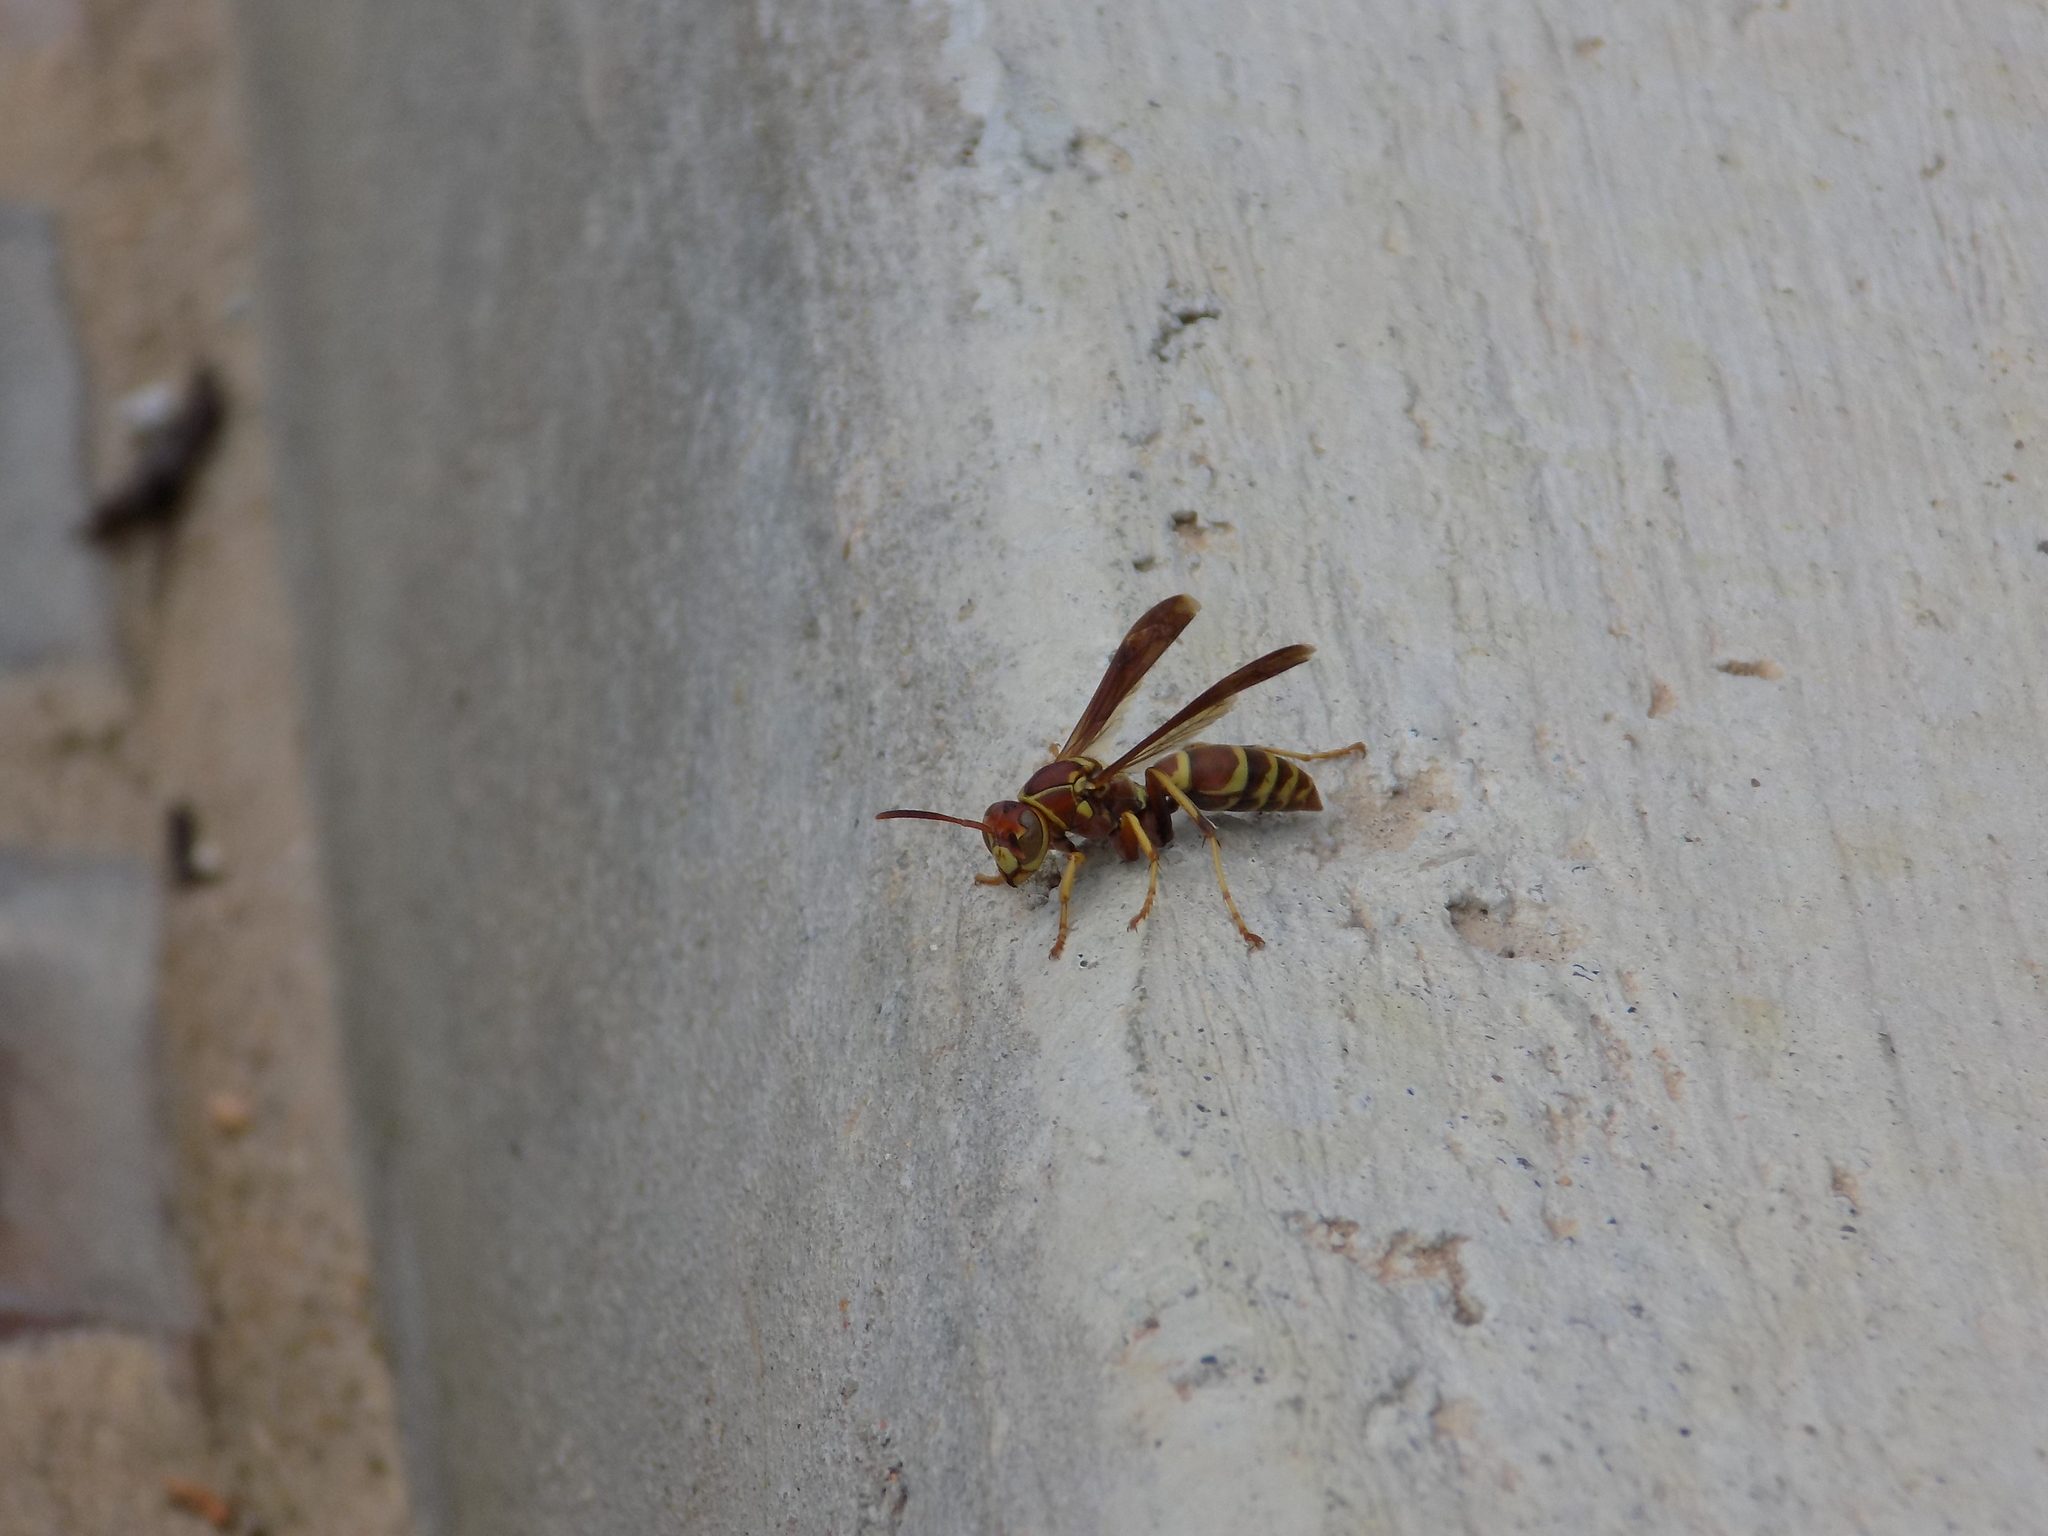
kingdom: Animalia
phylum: Arthropoda
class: Insecta
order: Hymenoptera
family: Eumenidae
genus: Polistes
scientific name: Polistes dorsalis
